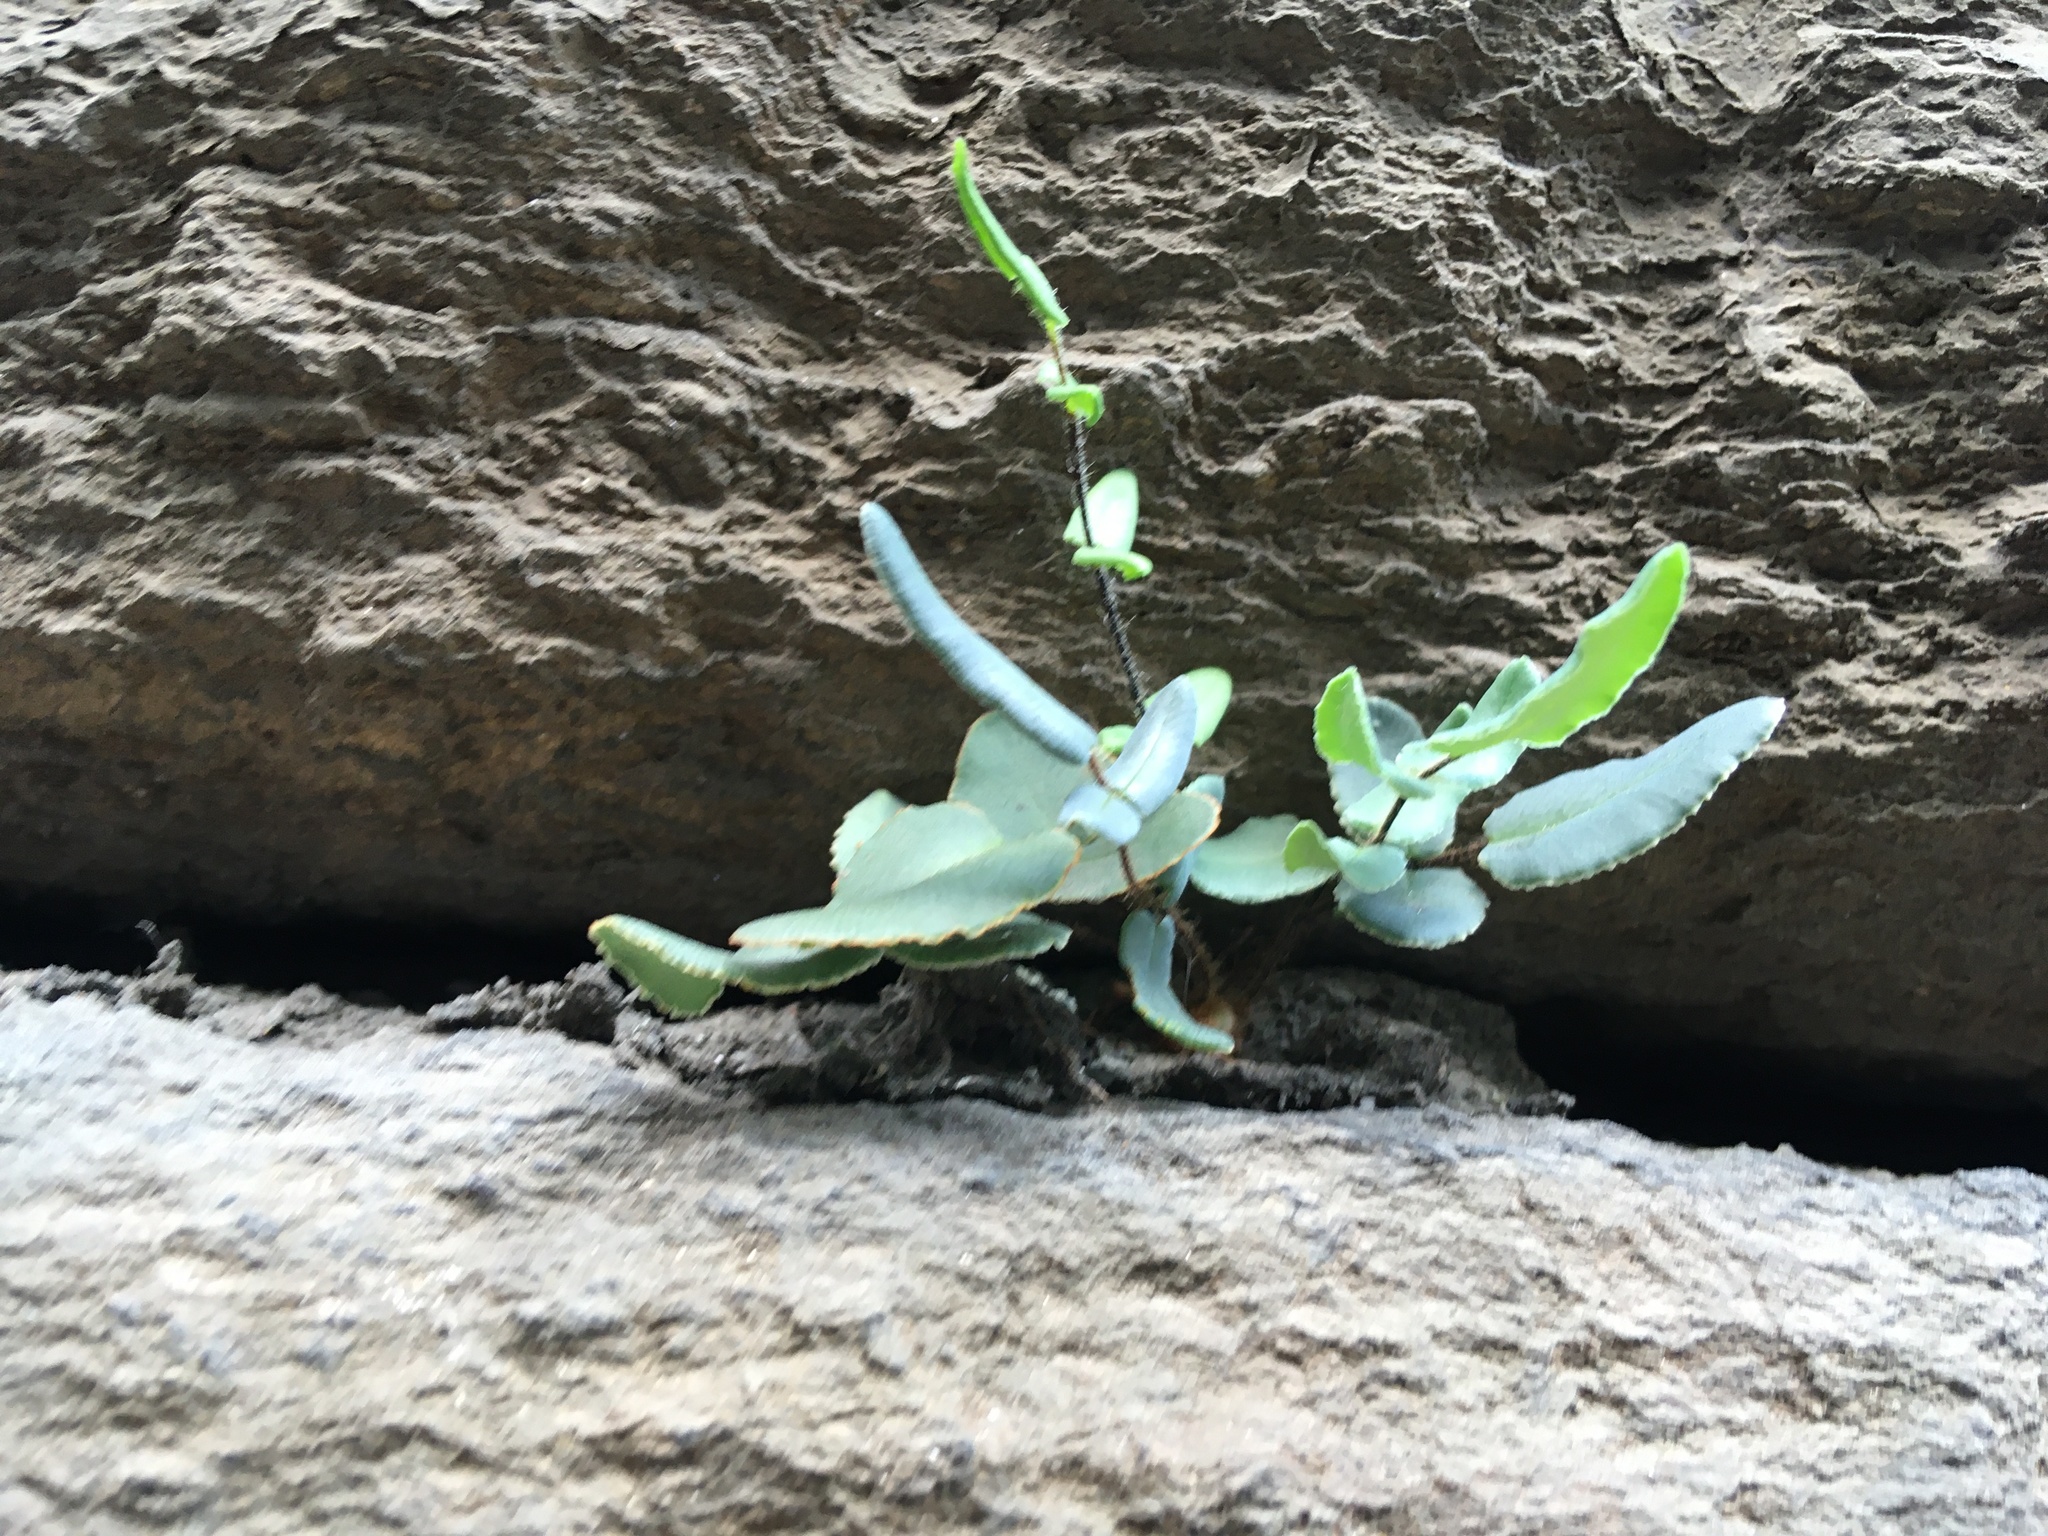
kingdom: Plantae
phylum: Tracheophyta
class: Polypodiopsida
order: Polypodiales
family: Pteridaceae
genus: Pellaea
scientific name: Pellaea atropurpurea
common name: Hairy cliffbrake
